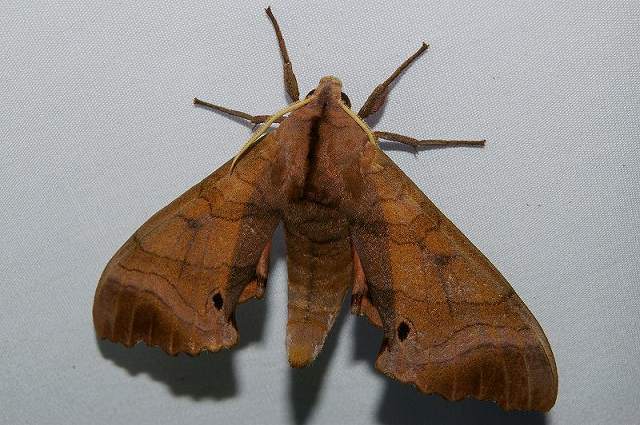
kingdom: Animalia
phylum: Arthropoda
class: Insecta
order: Lepidoptera
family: Sphingidae
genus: Marumba
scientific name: Marumba echephron
